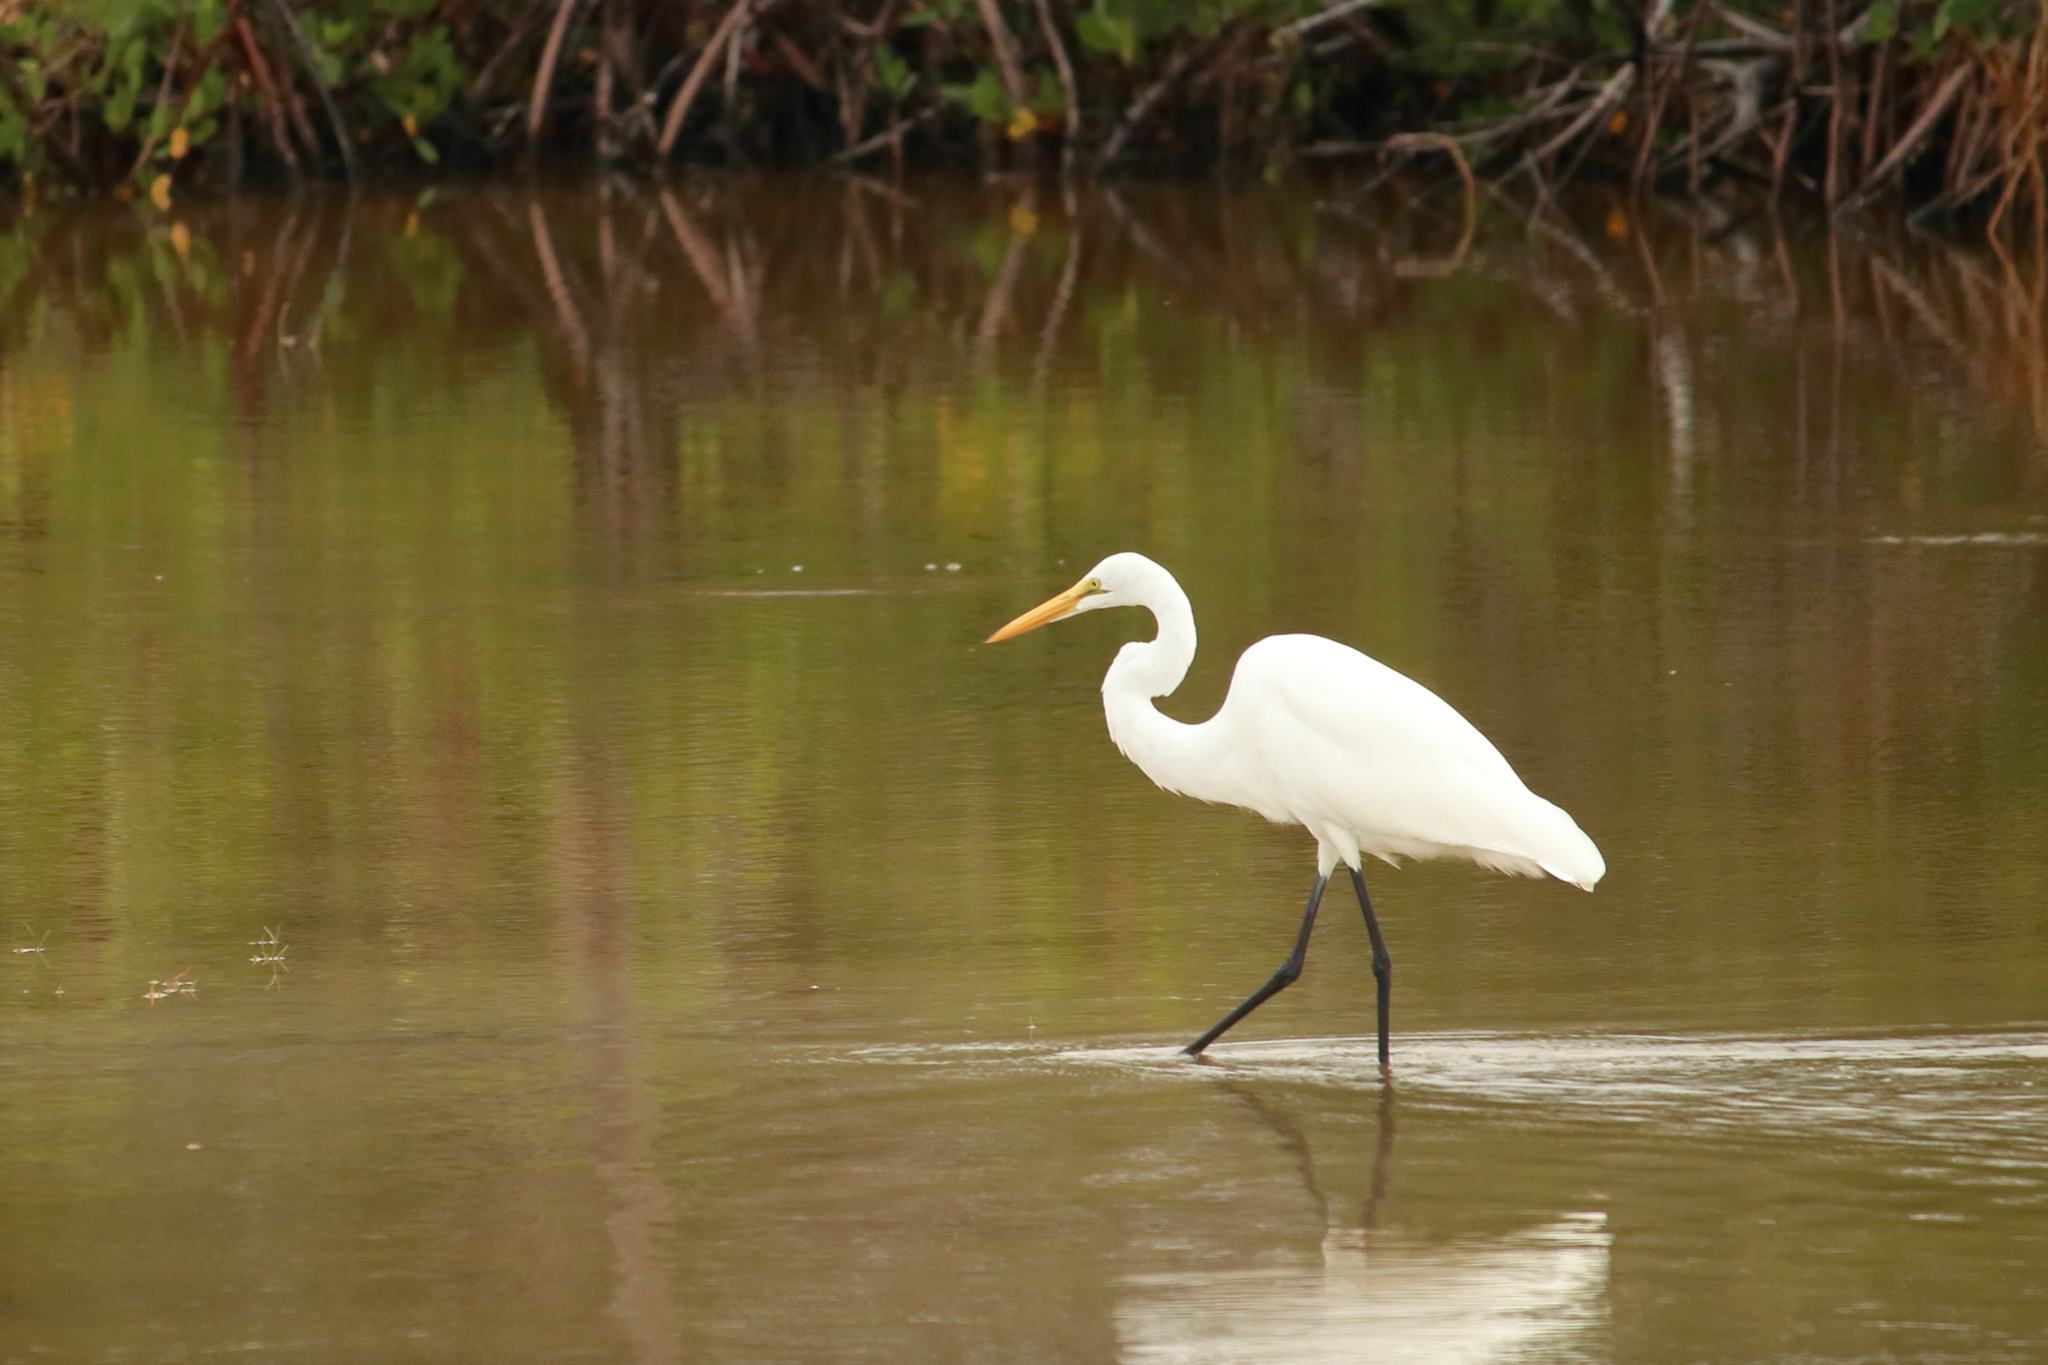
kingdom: Animalia
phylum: Chordata
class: Aves
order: Pelecaniformes
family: Ardeidae
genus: Ardea
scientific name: Ardea alba
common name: Great egret
